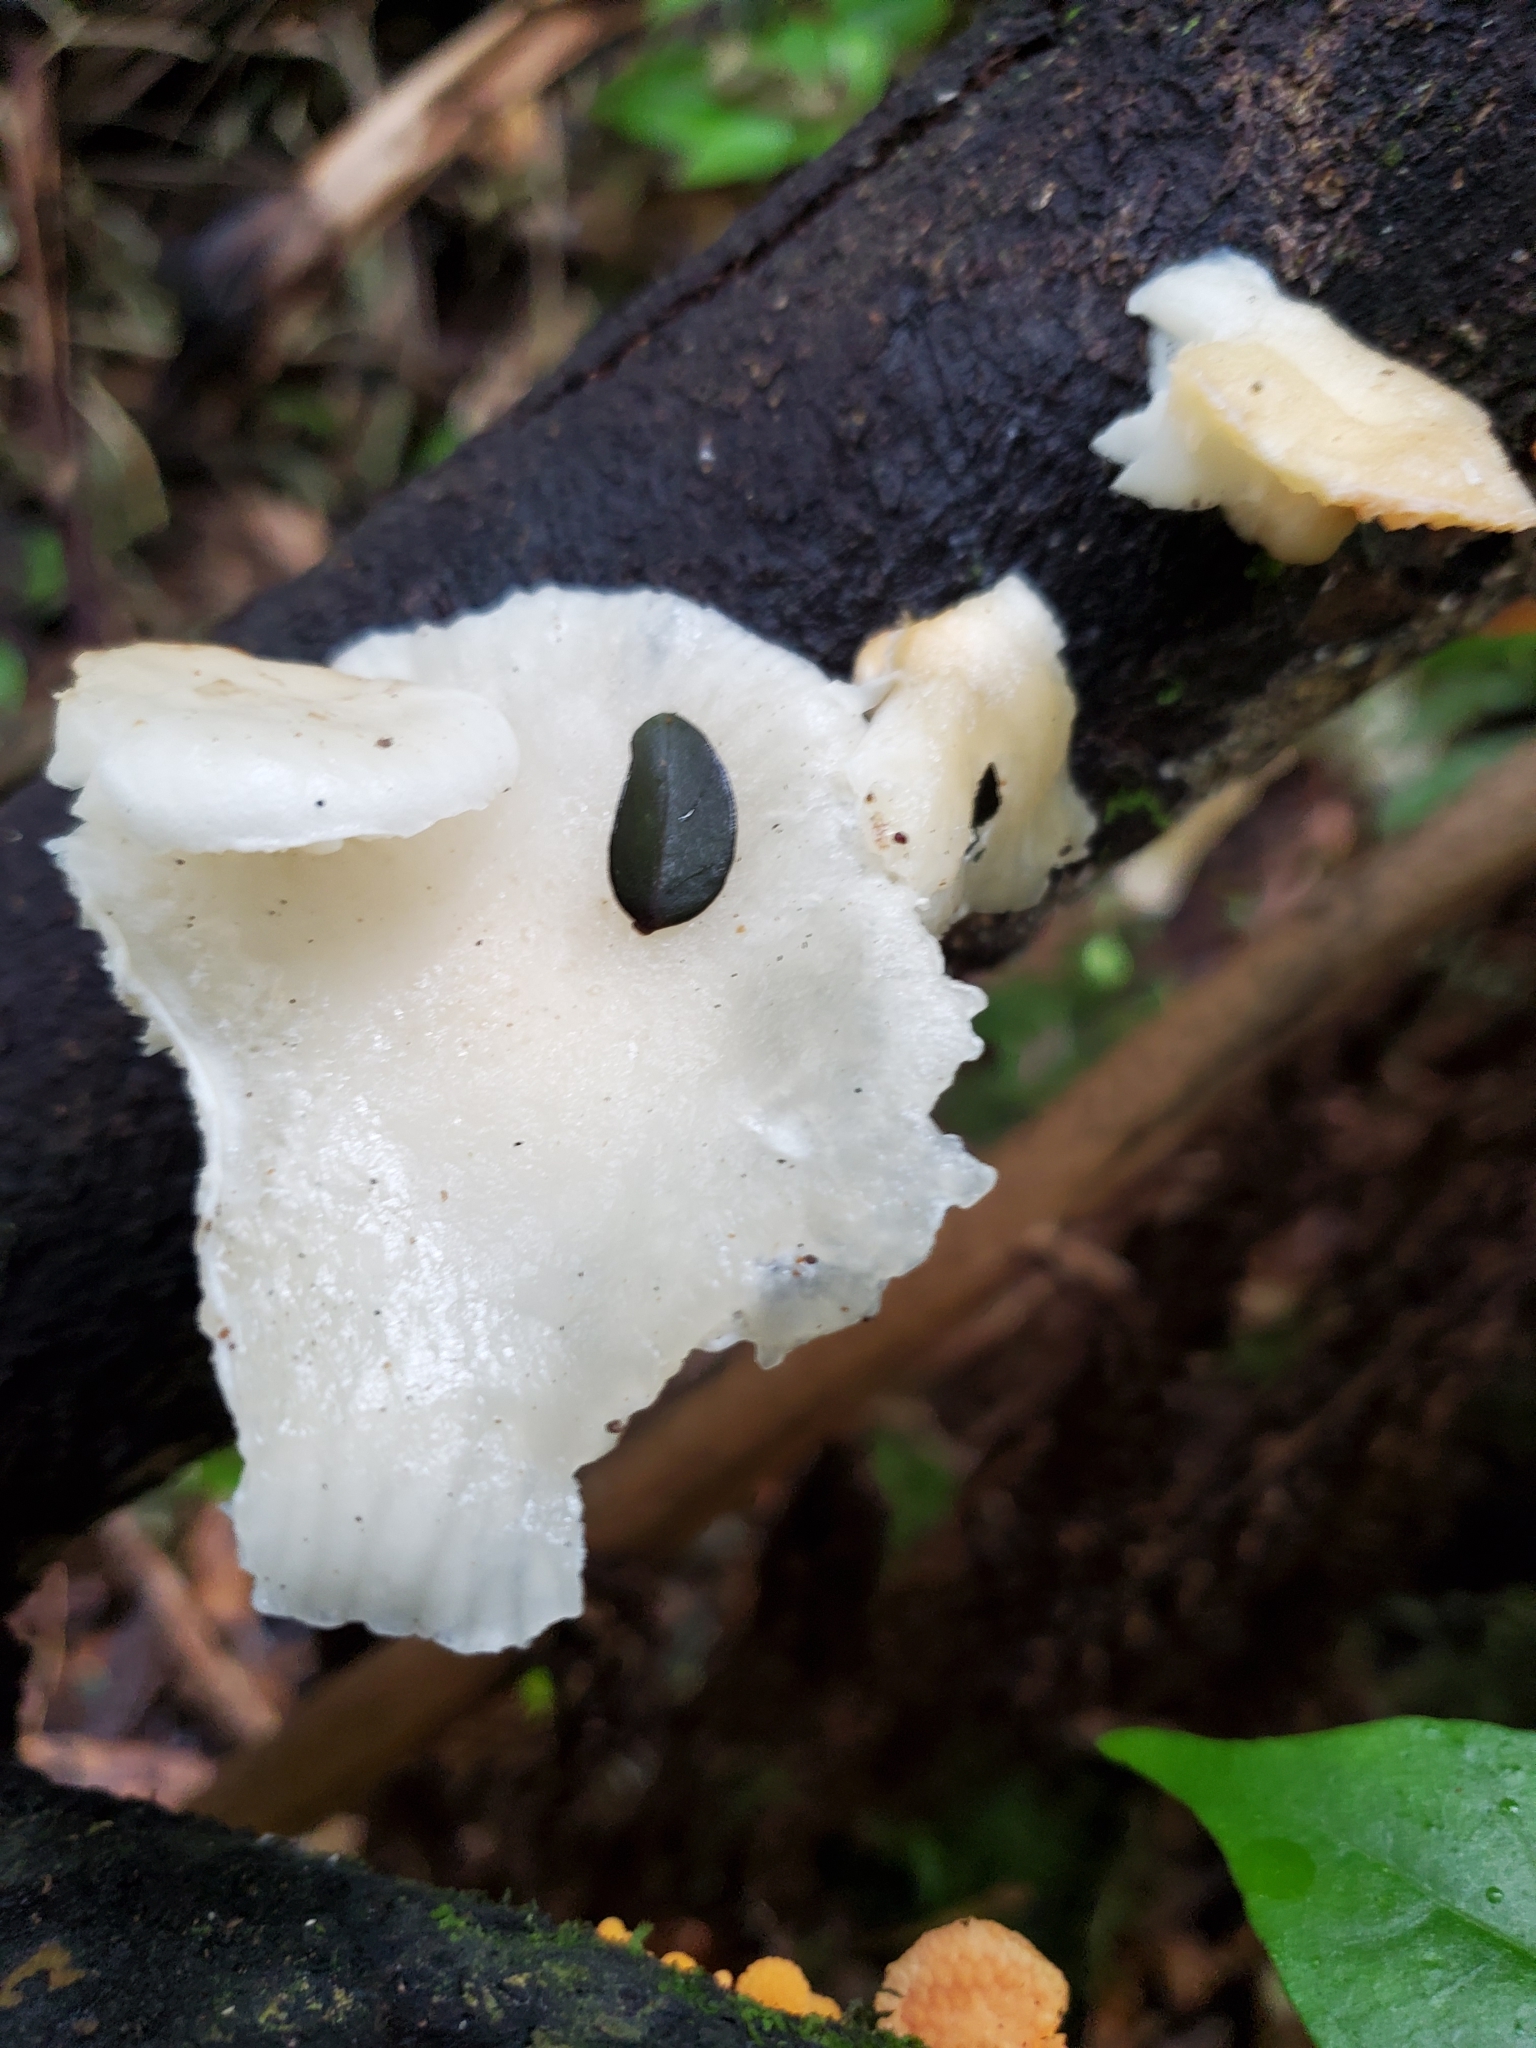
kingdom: Fungi
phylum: Basidiomycota
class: Agaricomycetes
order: Agaricales
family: Physalacriaceae
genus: Oudemansiella
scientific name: Oudemansiella australis
